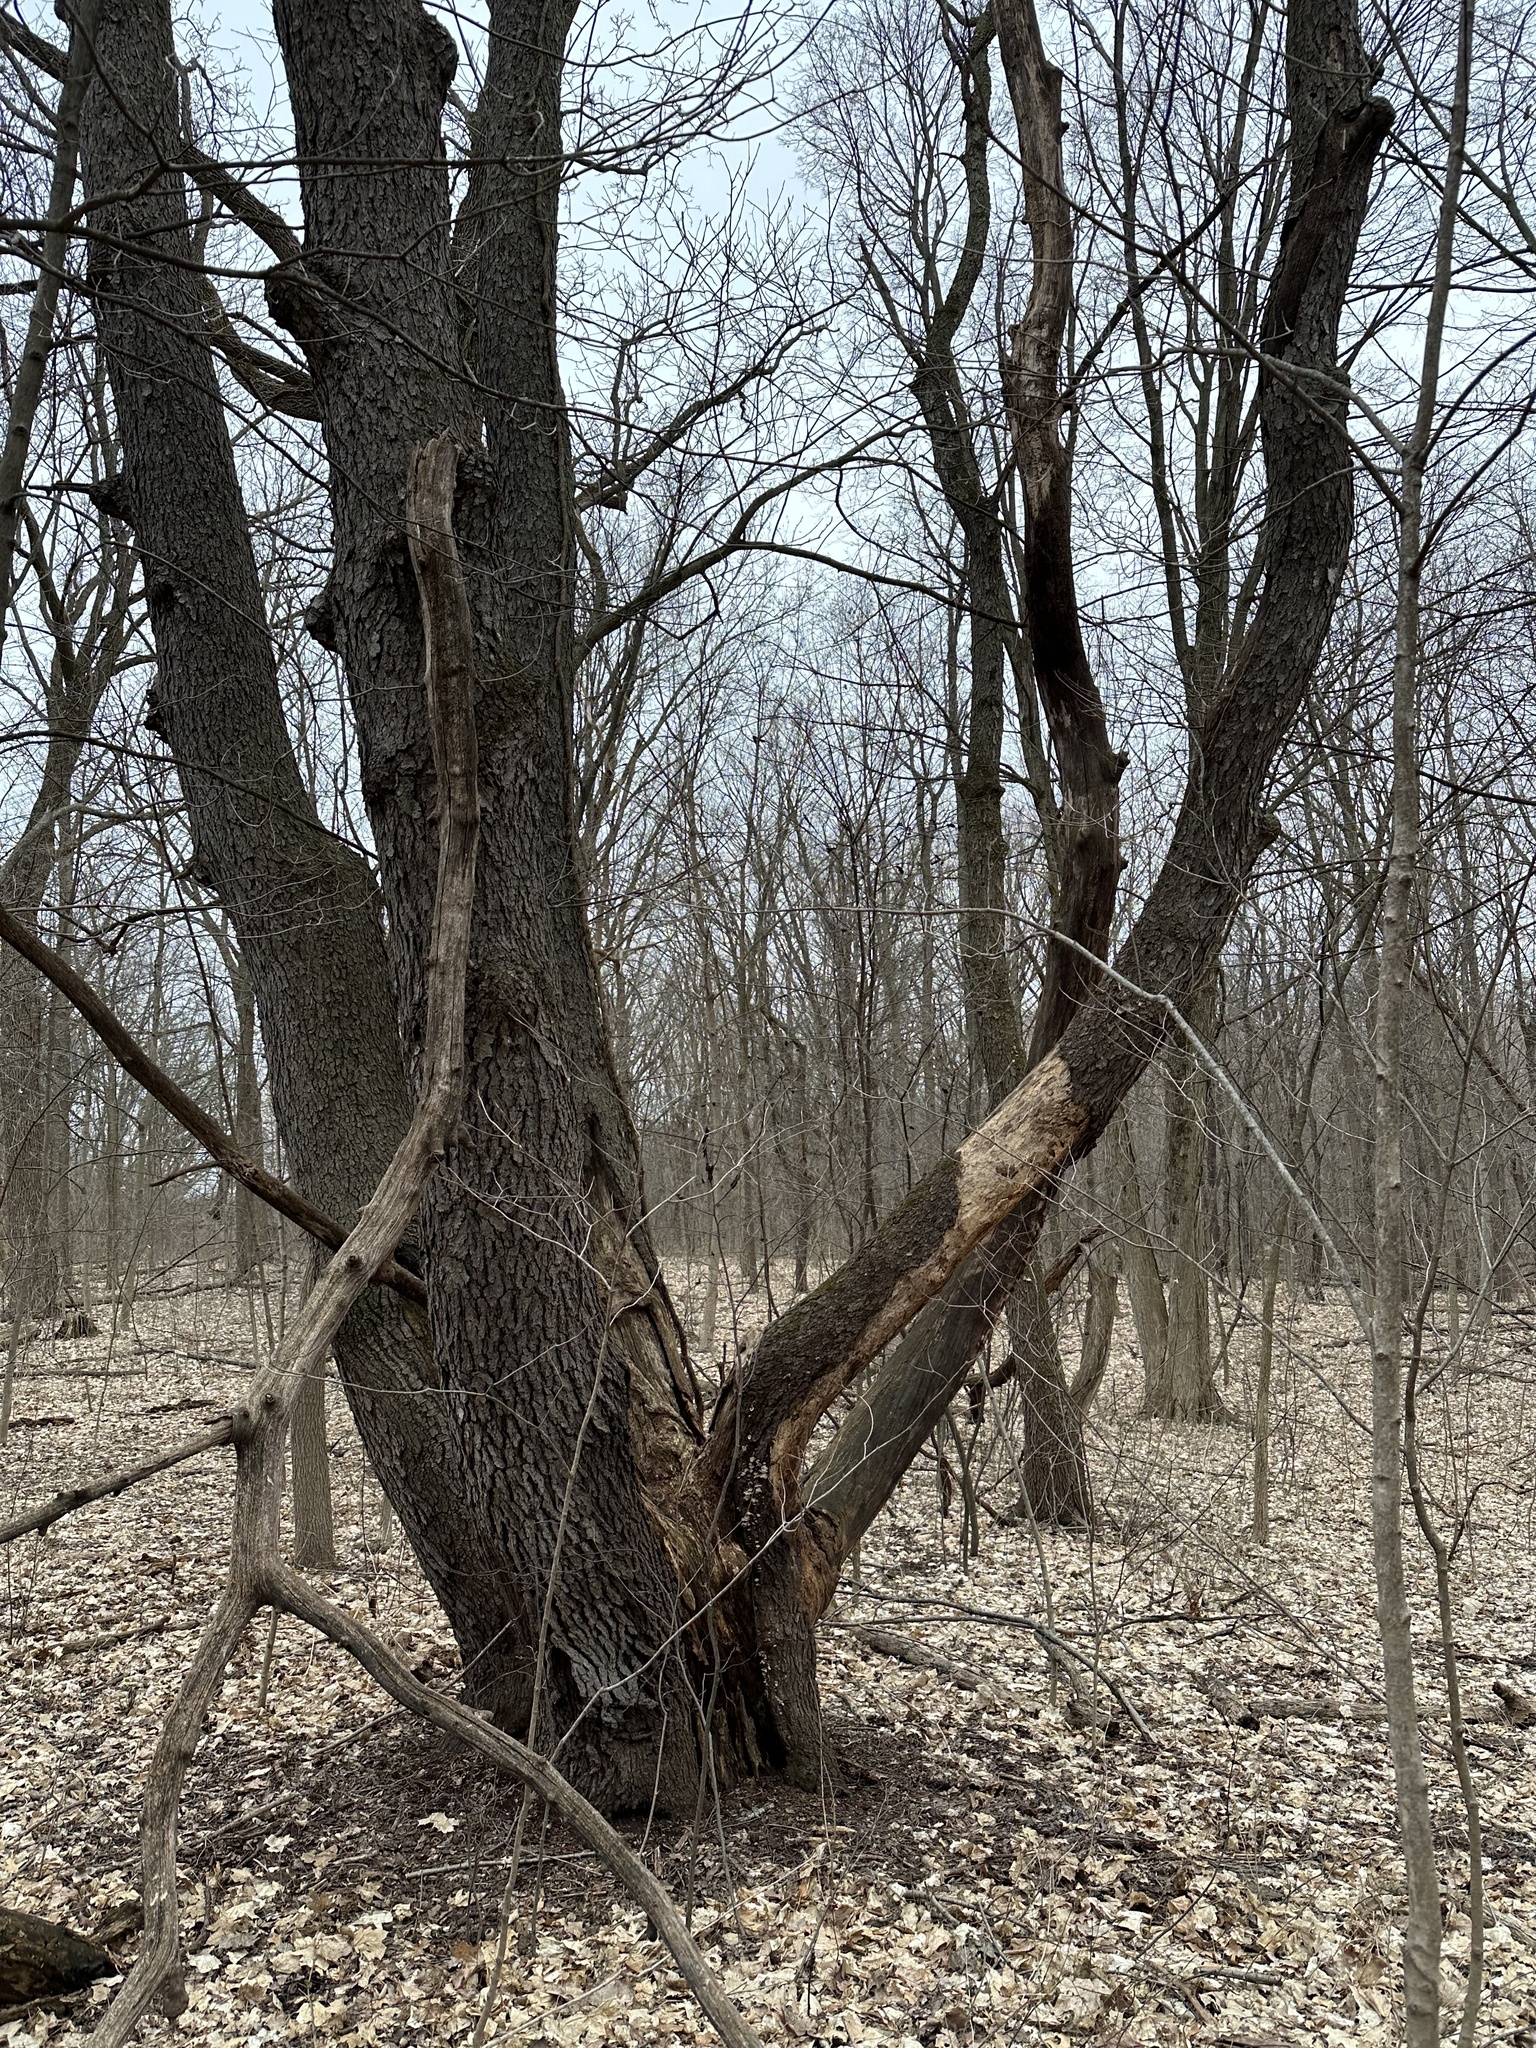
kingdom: Plantae
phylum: Tracheophyta
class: Magnoliopsida
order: Rosales
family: Rosaceae
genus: Prunus
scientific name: Prunus serotina
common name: Black cherry
